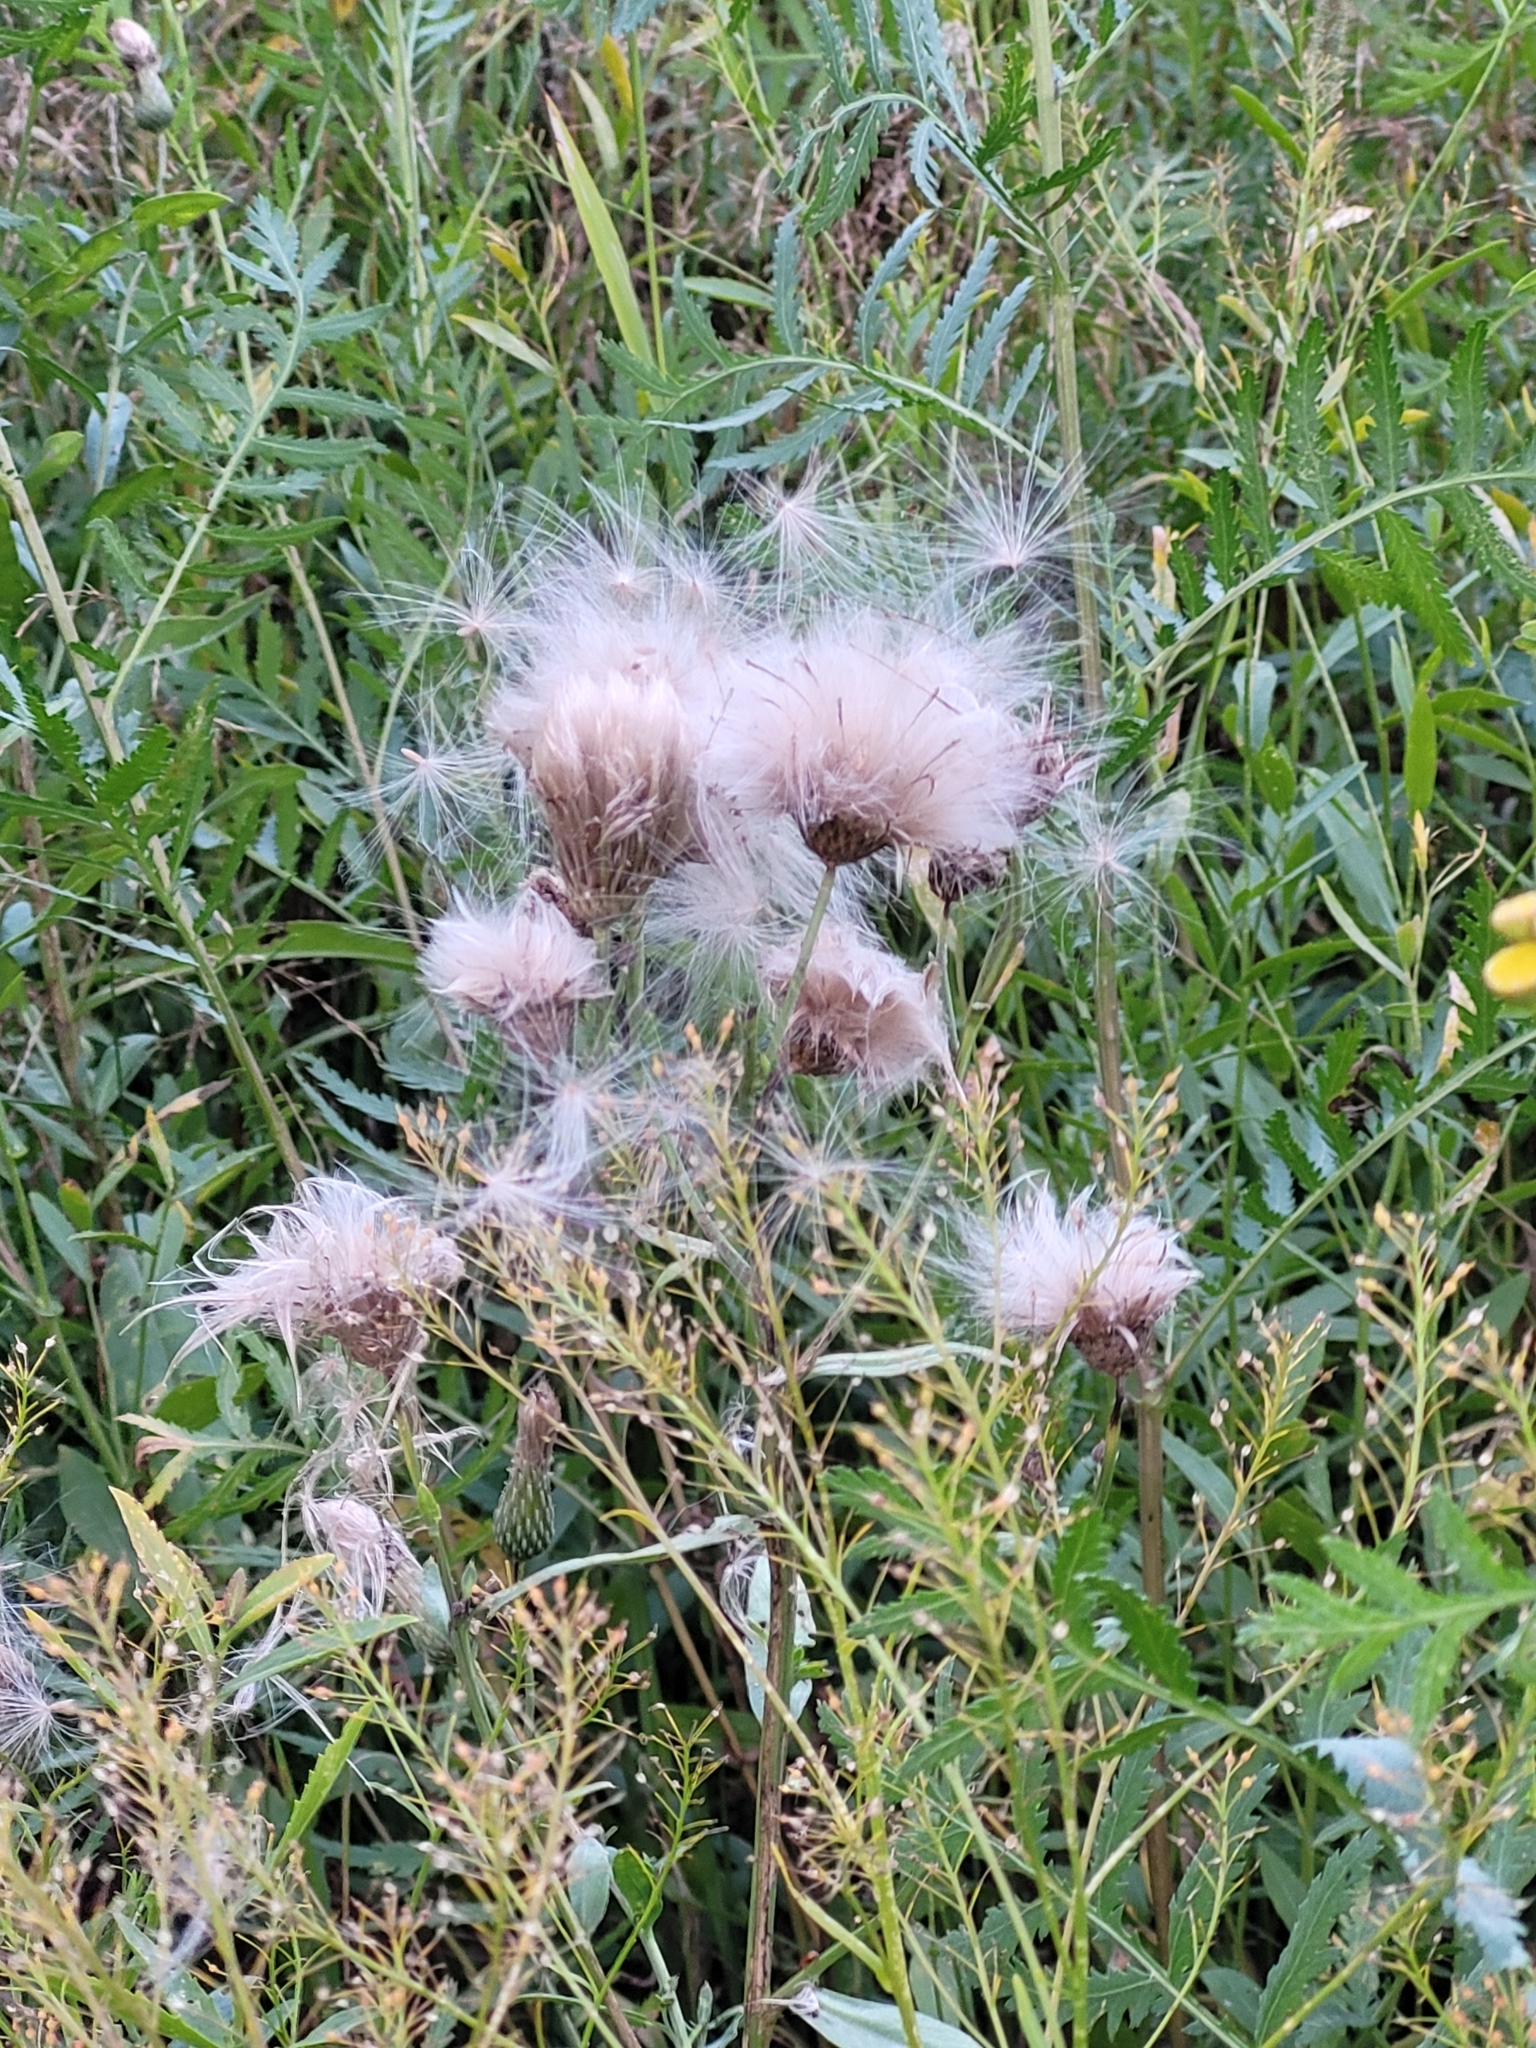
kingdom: Plantae
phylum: Tracheophyta
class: Magnoliopsida
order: Asterales
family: Asteraceae
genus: Cirsium
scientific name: Cirsium arvense
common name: Creeping thistle
